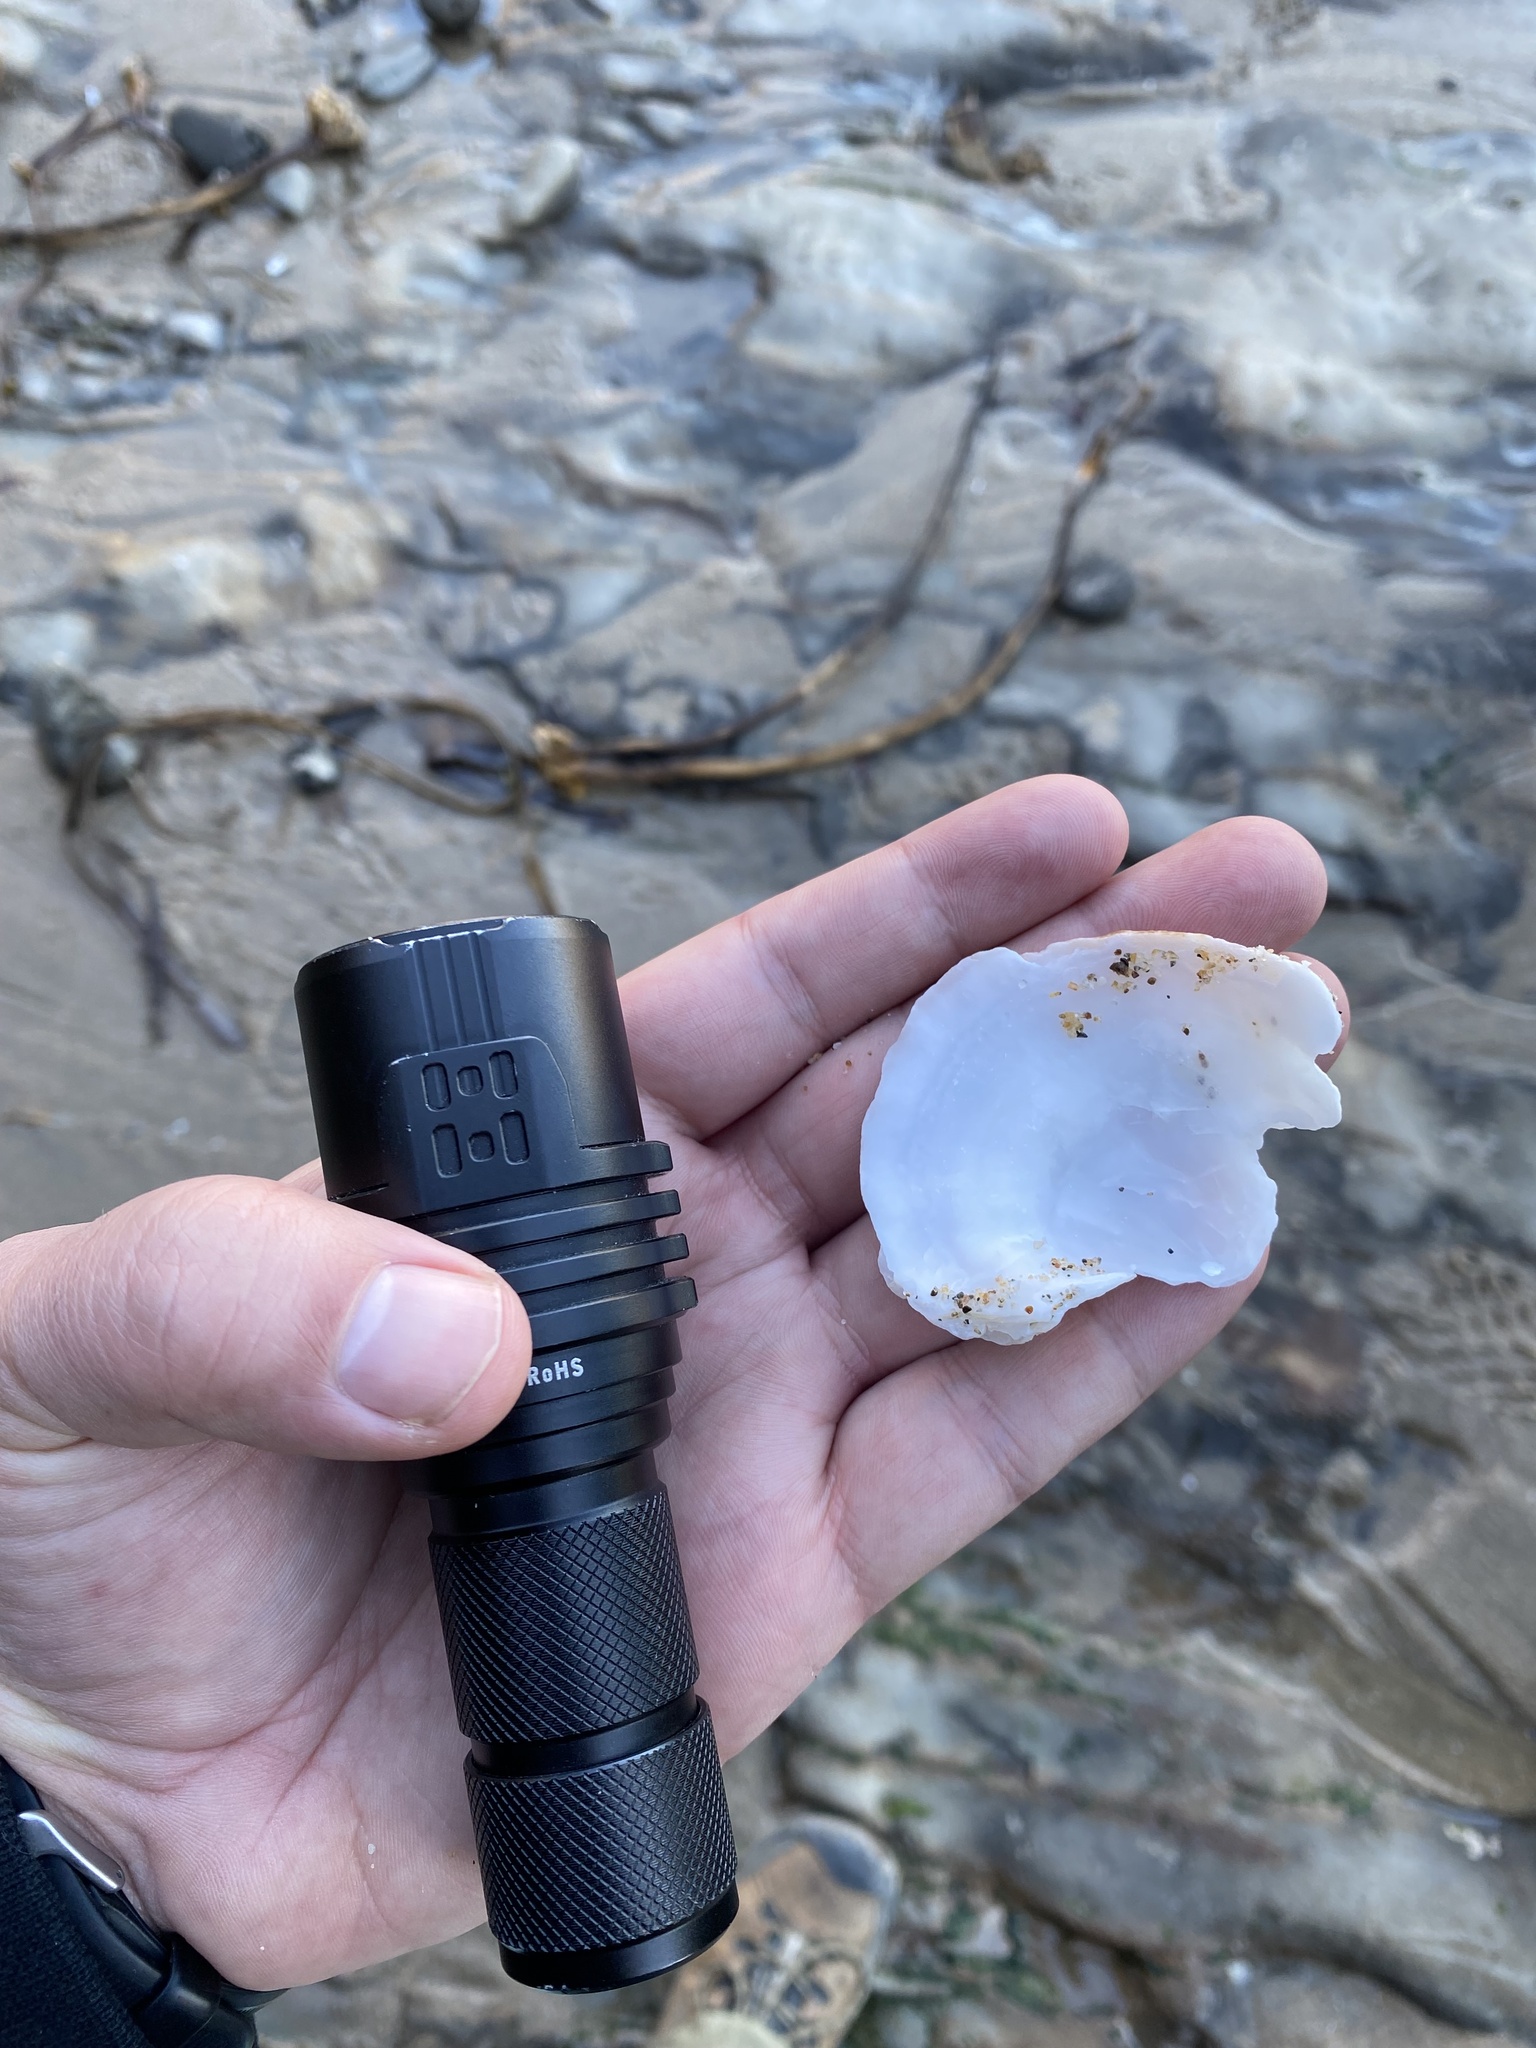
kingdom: Animalia
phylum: Mollusca
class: Bivalvia
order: Pectinida
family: Pectinidae
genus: Crassadoma
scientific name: Crassadoma gigantea
